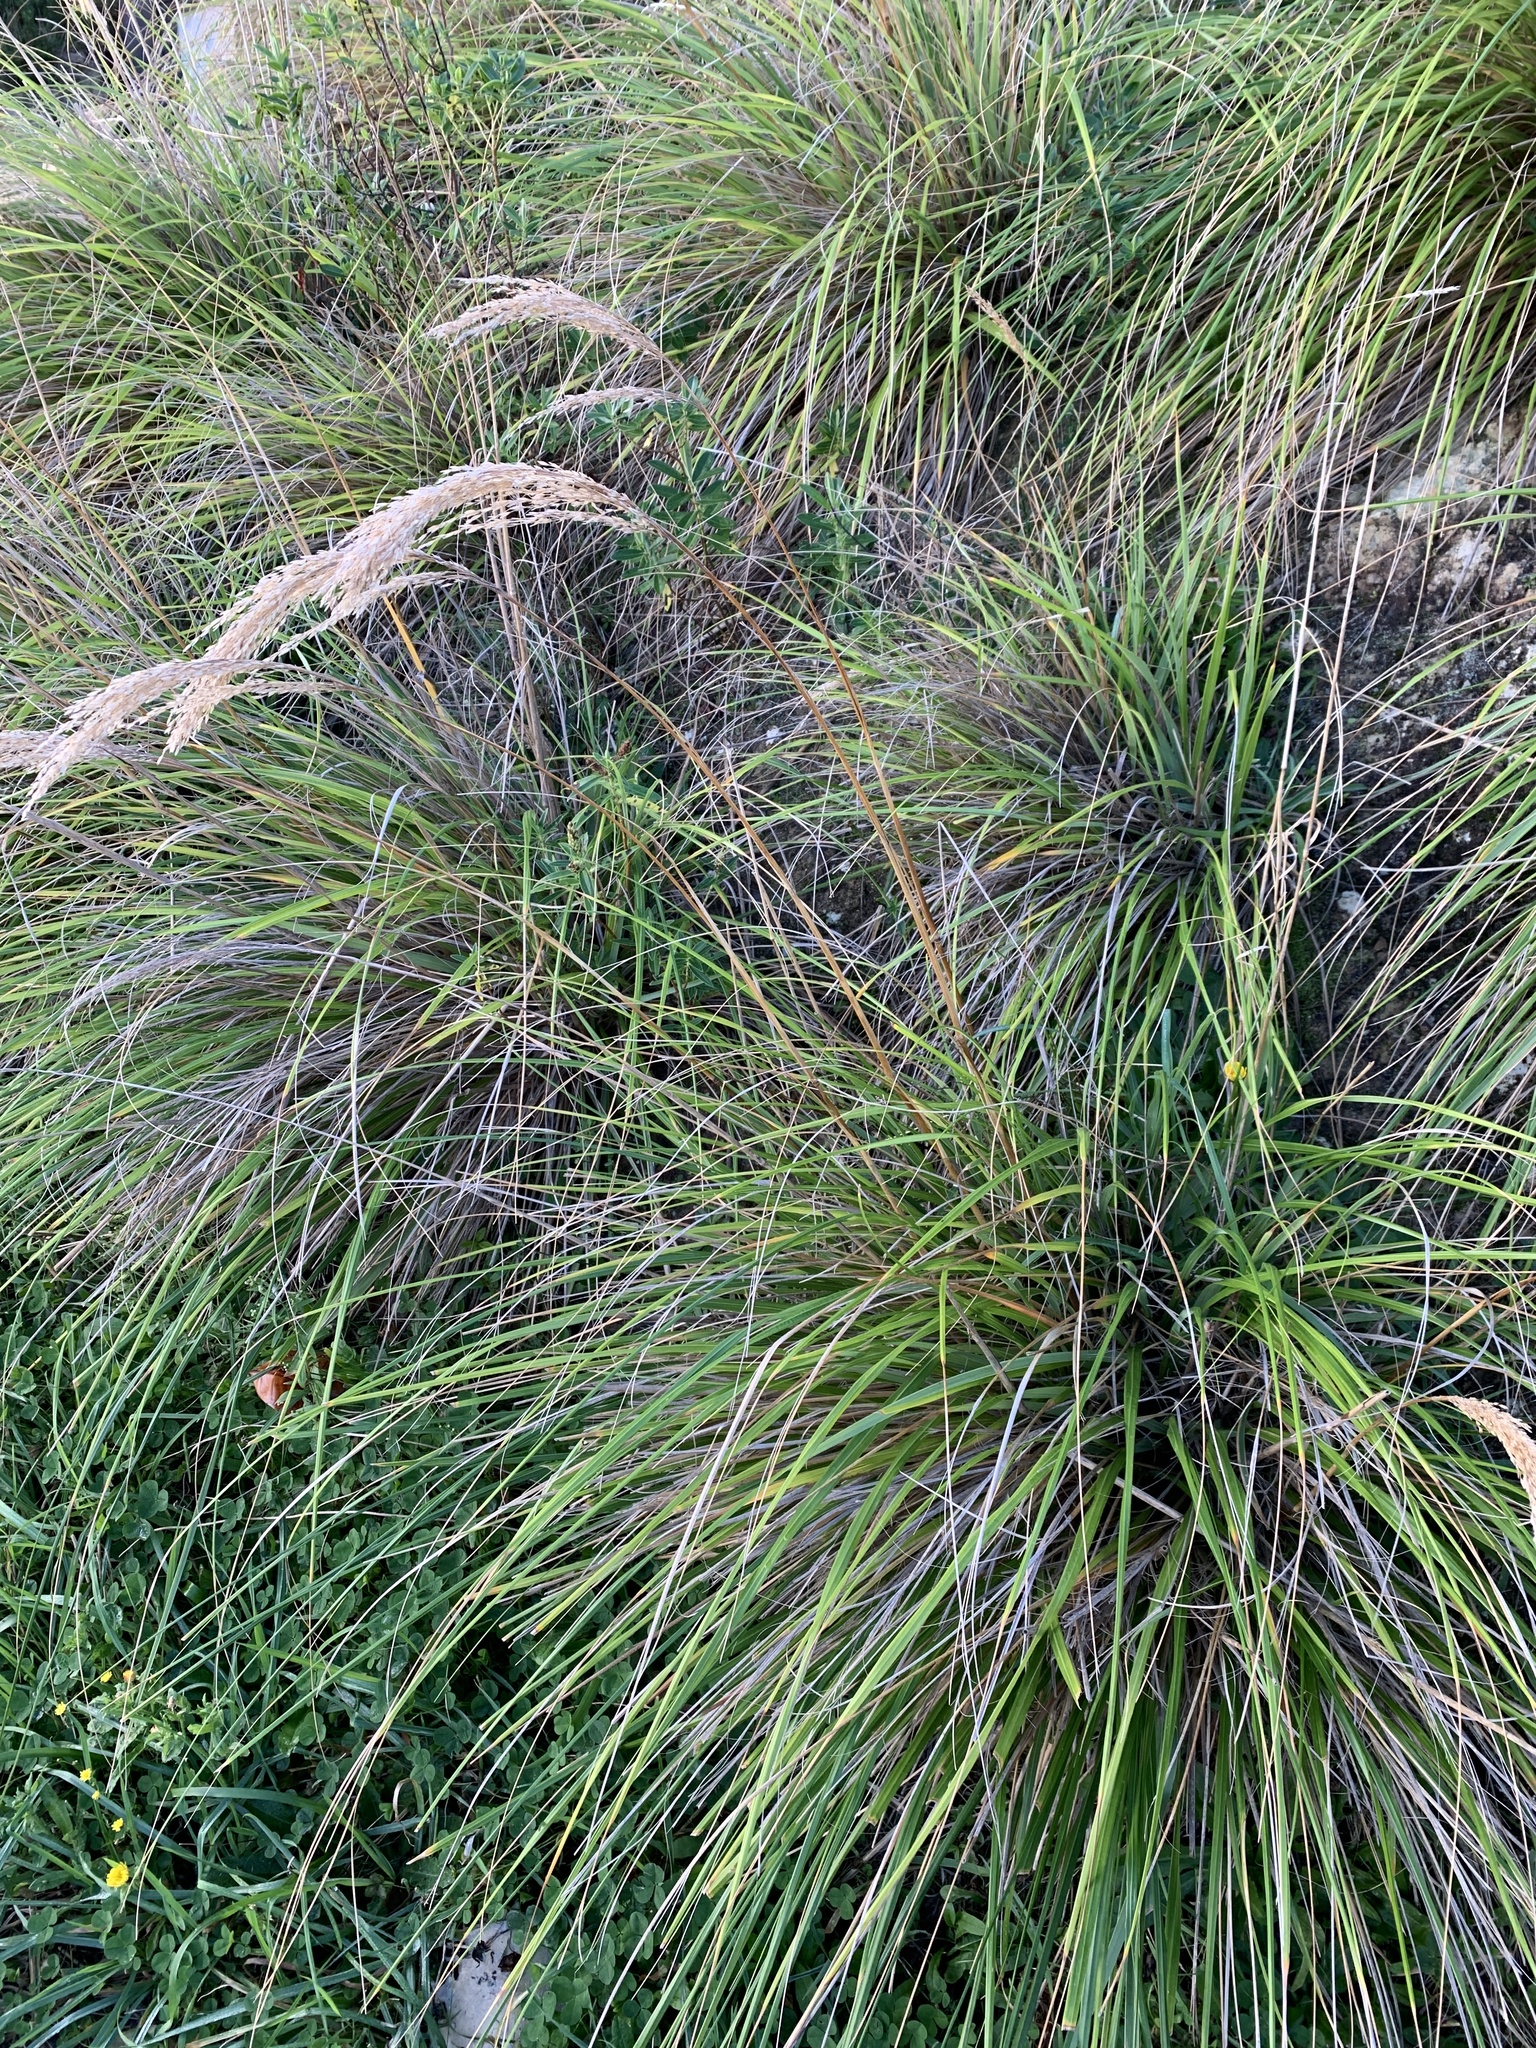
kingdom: Plantae
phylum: Tracheophyta
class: Liliopsida
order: Poales
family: Cyperaceae
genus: Carex
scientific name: Carex virgata
